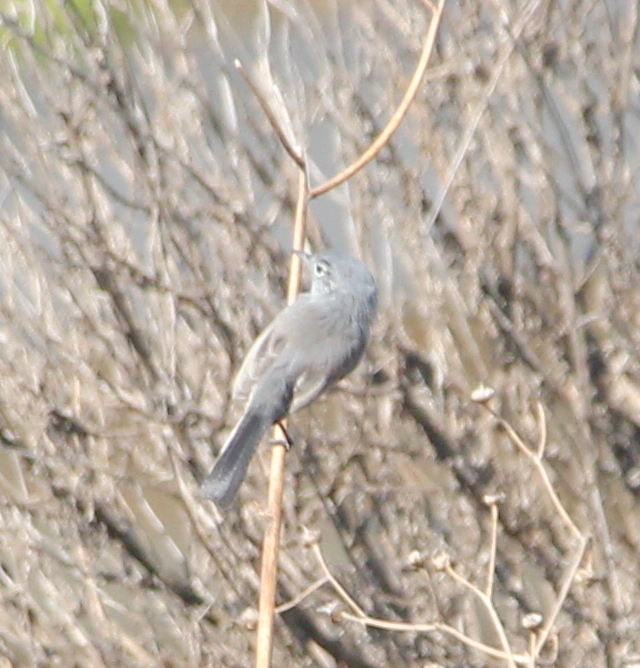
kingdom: Animalia
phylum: Chordata
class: Aves
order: Passeriformes
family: Polioptilidae
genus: Polioptila
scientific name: Polioptila californica
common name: California gnatcatcher
